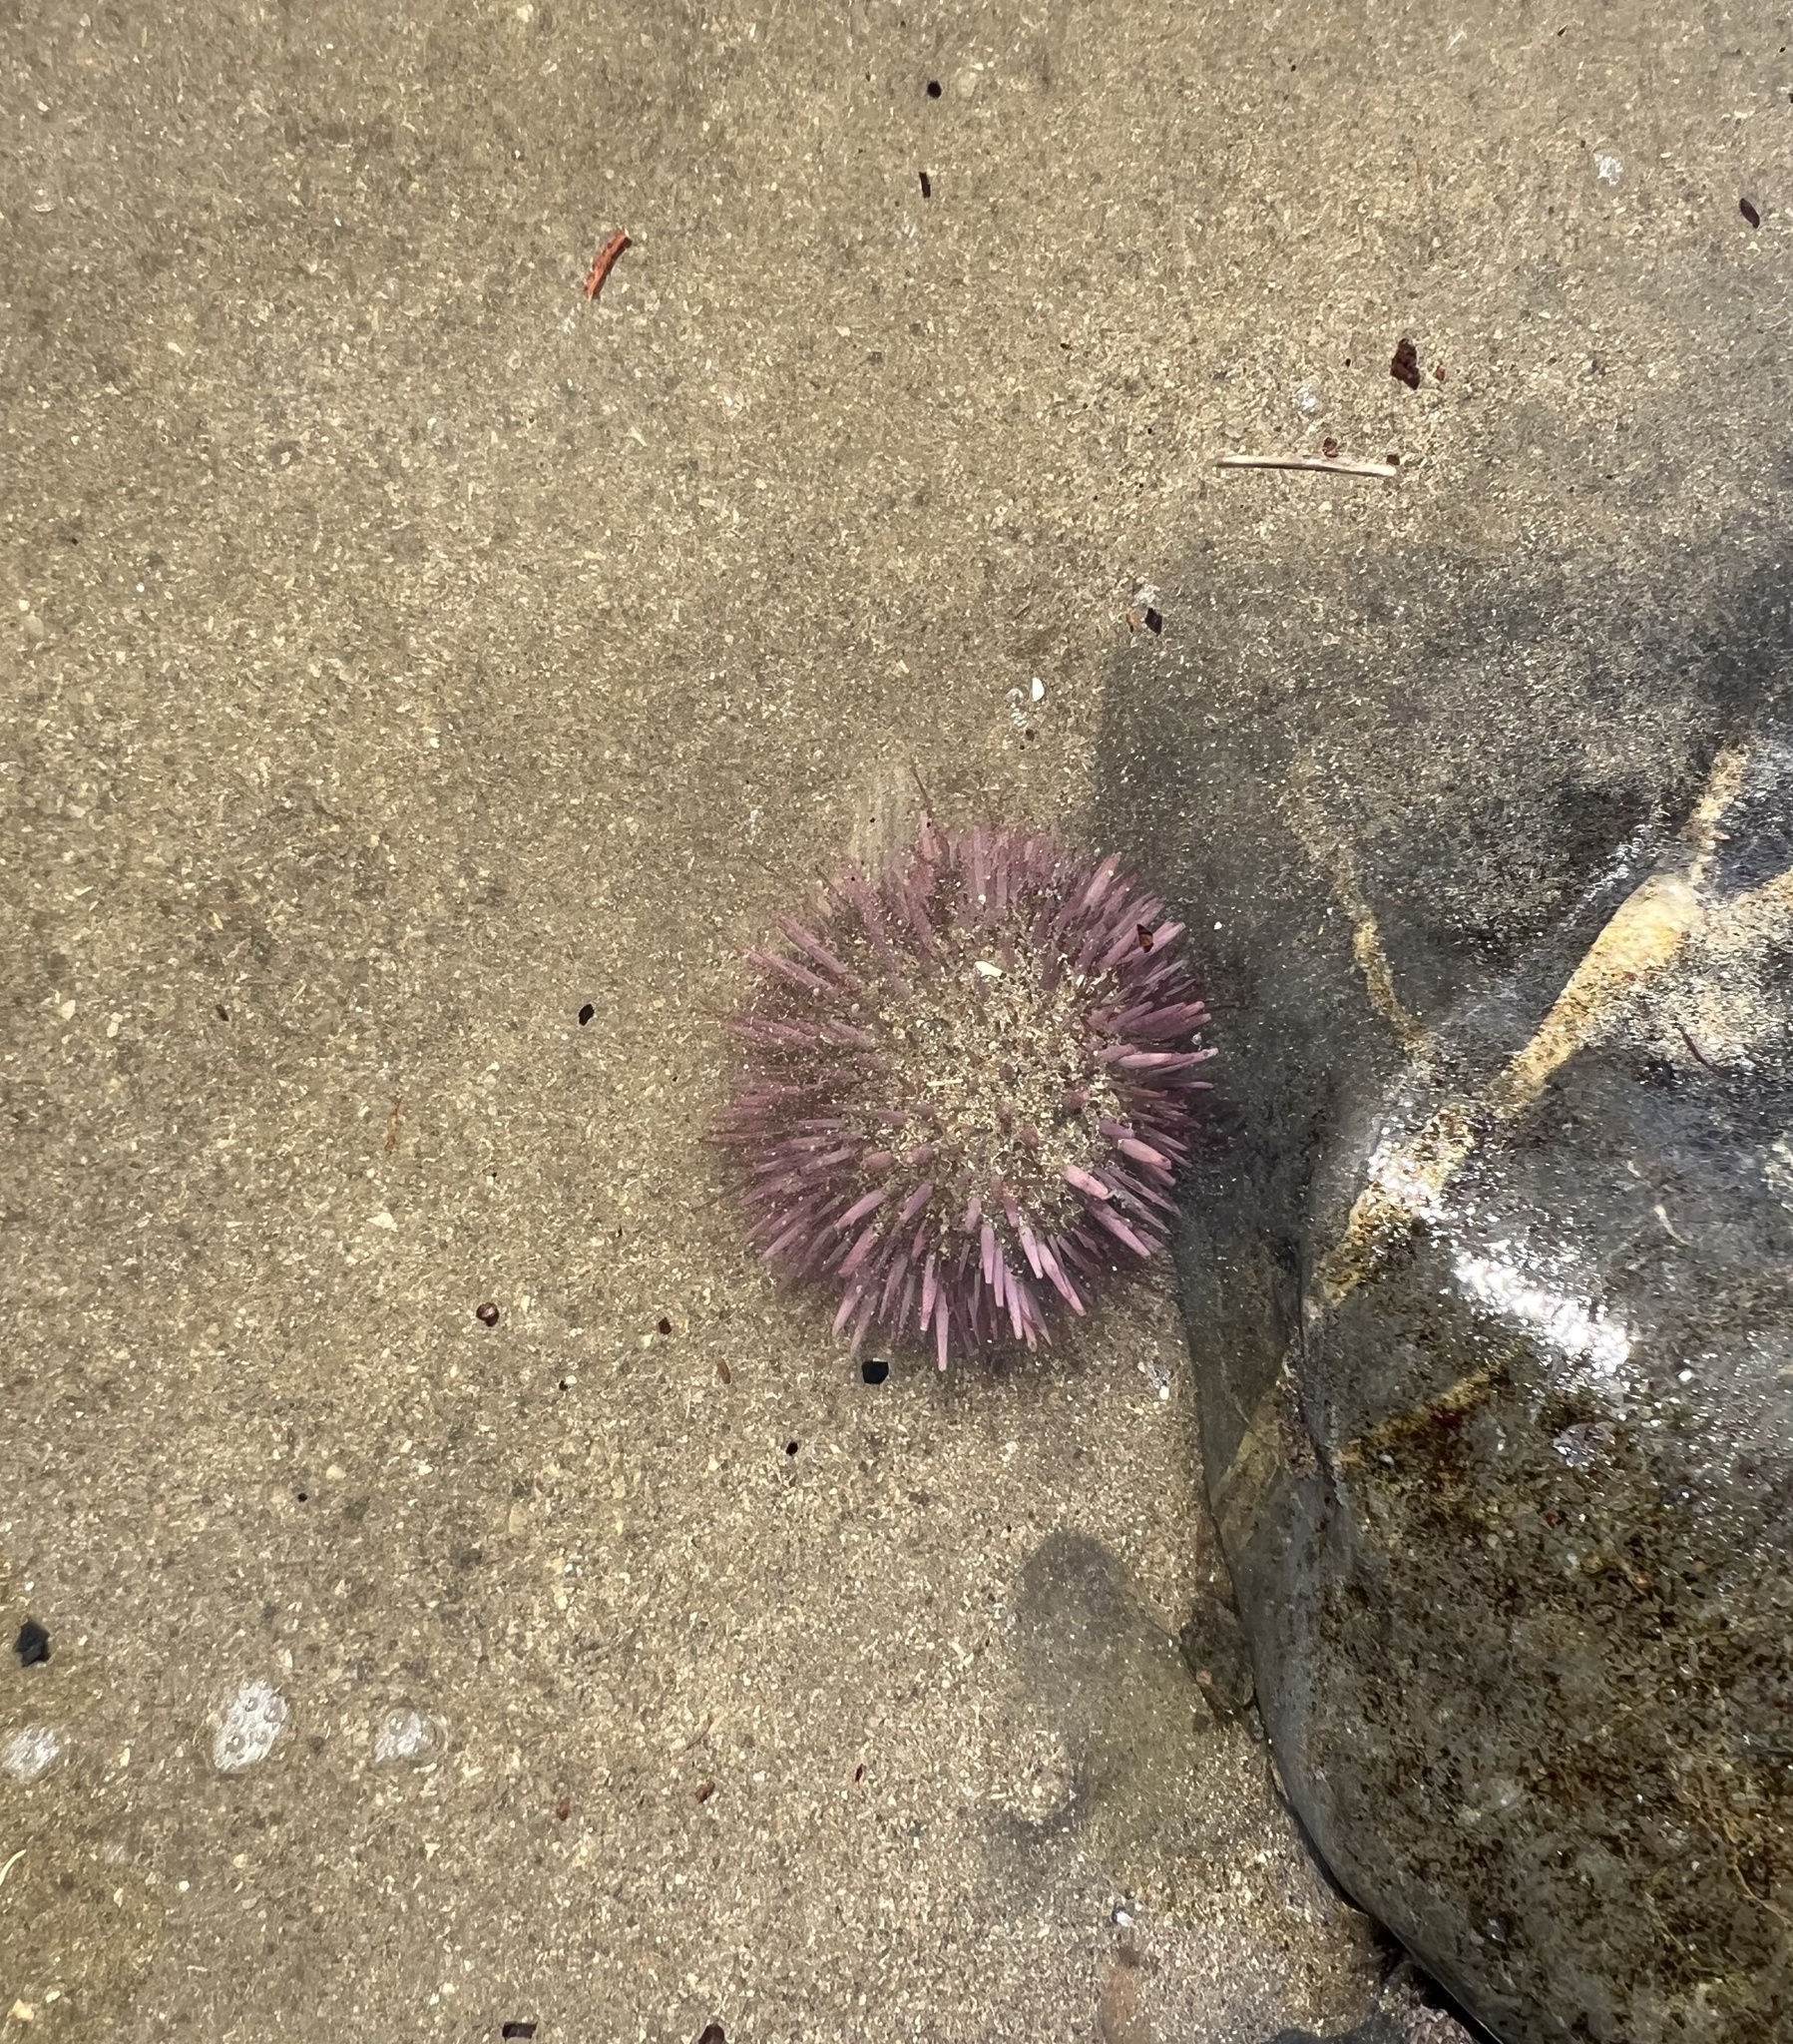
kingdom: Animalia
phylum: Echinodermata
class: Echinoidea
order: Camarodonta
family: Strongylocentrotidae
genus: Strongylocentrotus
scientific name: Strongylocentrotus purpuratus
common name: Purple sea urchin
